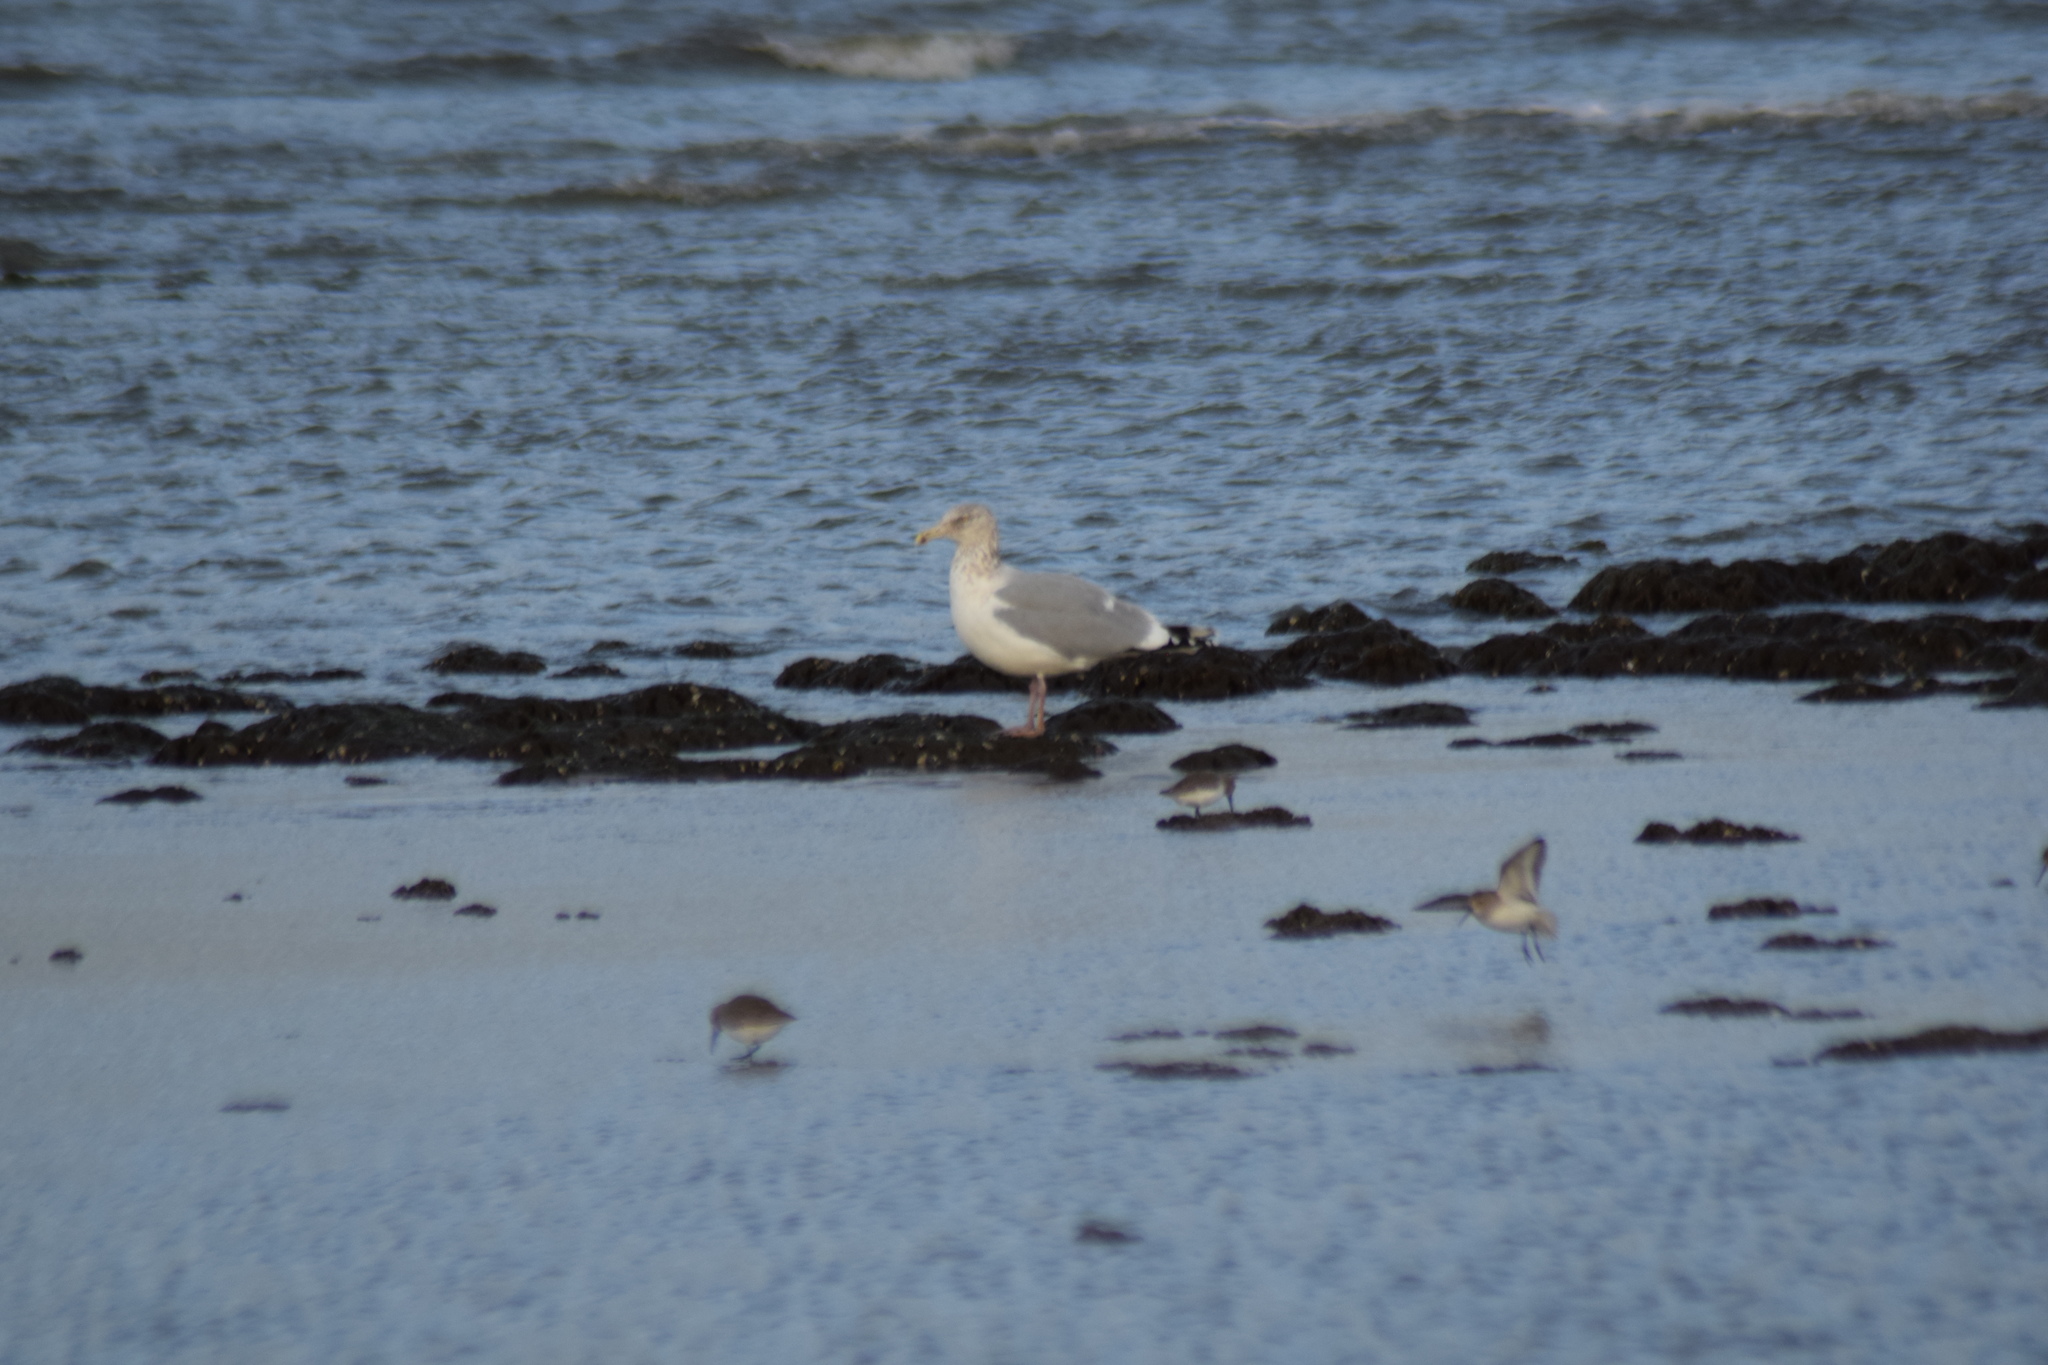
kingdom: Animalia
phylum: Chordata
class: Aves
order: Charadriiformes
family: Laridae
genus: Larus
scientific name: Larus argentatus
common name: Herring gull
